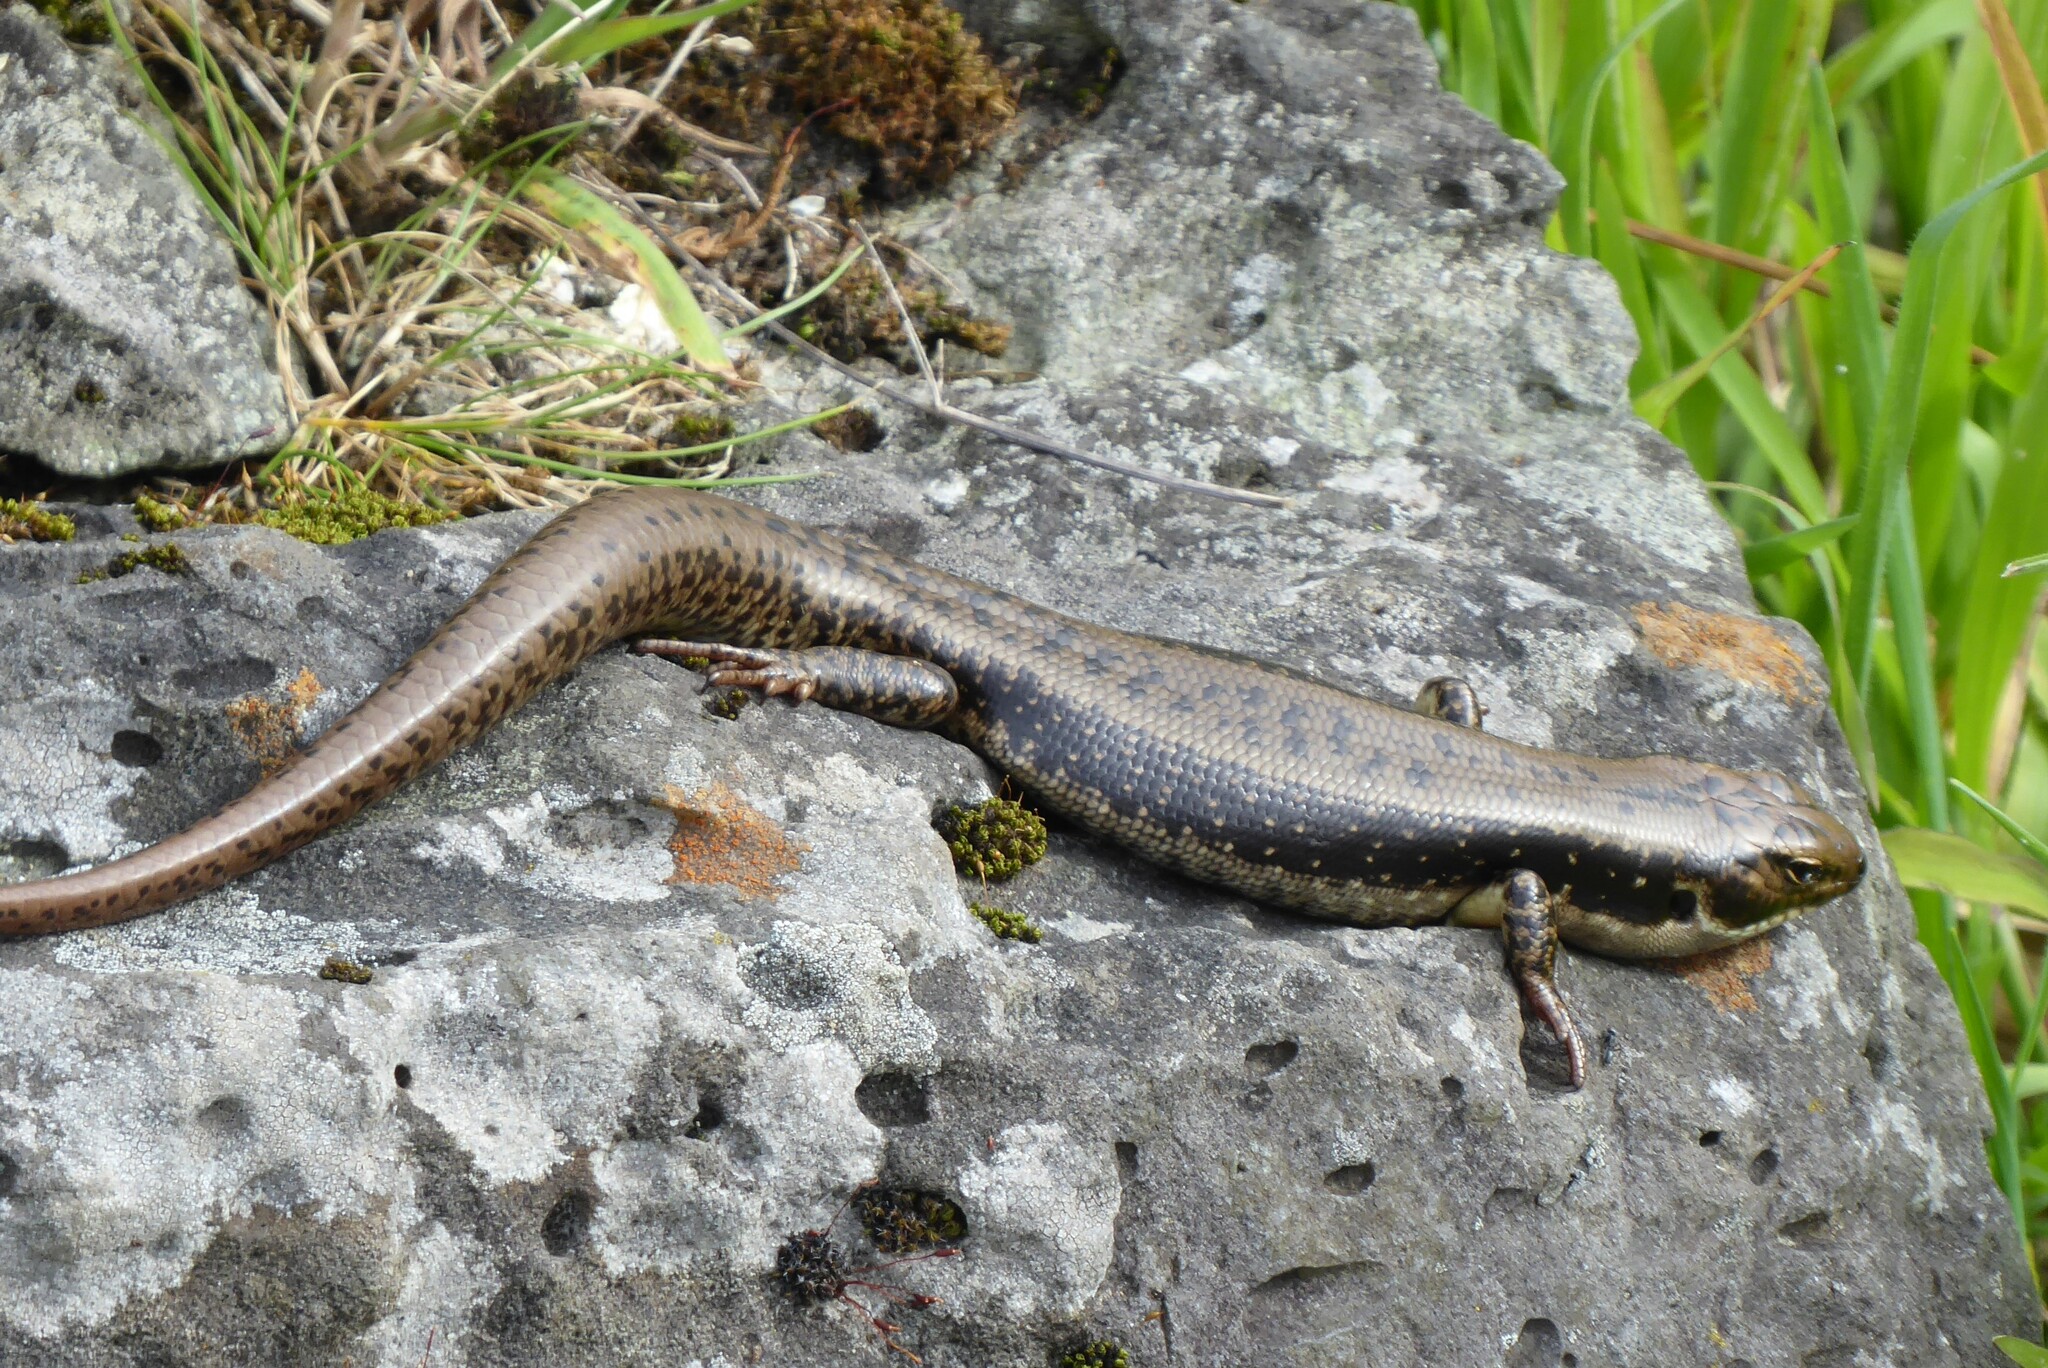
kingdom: Animalia
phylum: Chordata
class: Squamata
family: Scincidae
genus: Eulamprus
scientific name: Eulamprus tympanum
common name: Cool-temperate water-skink
